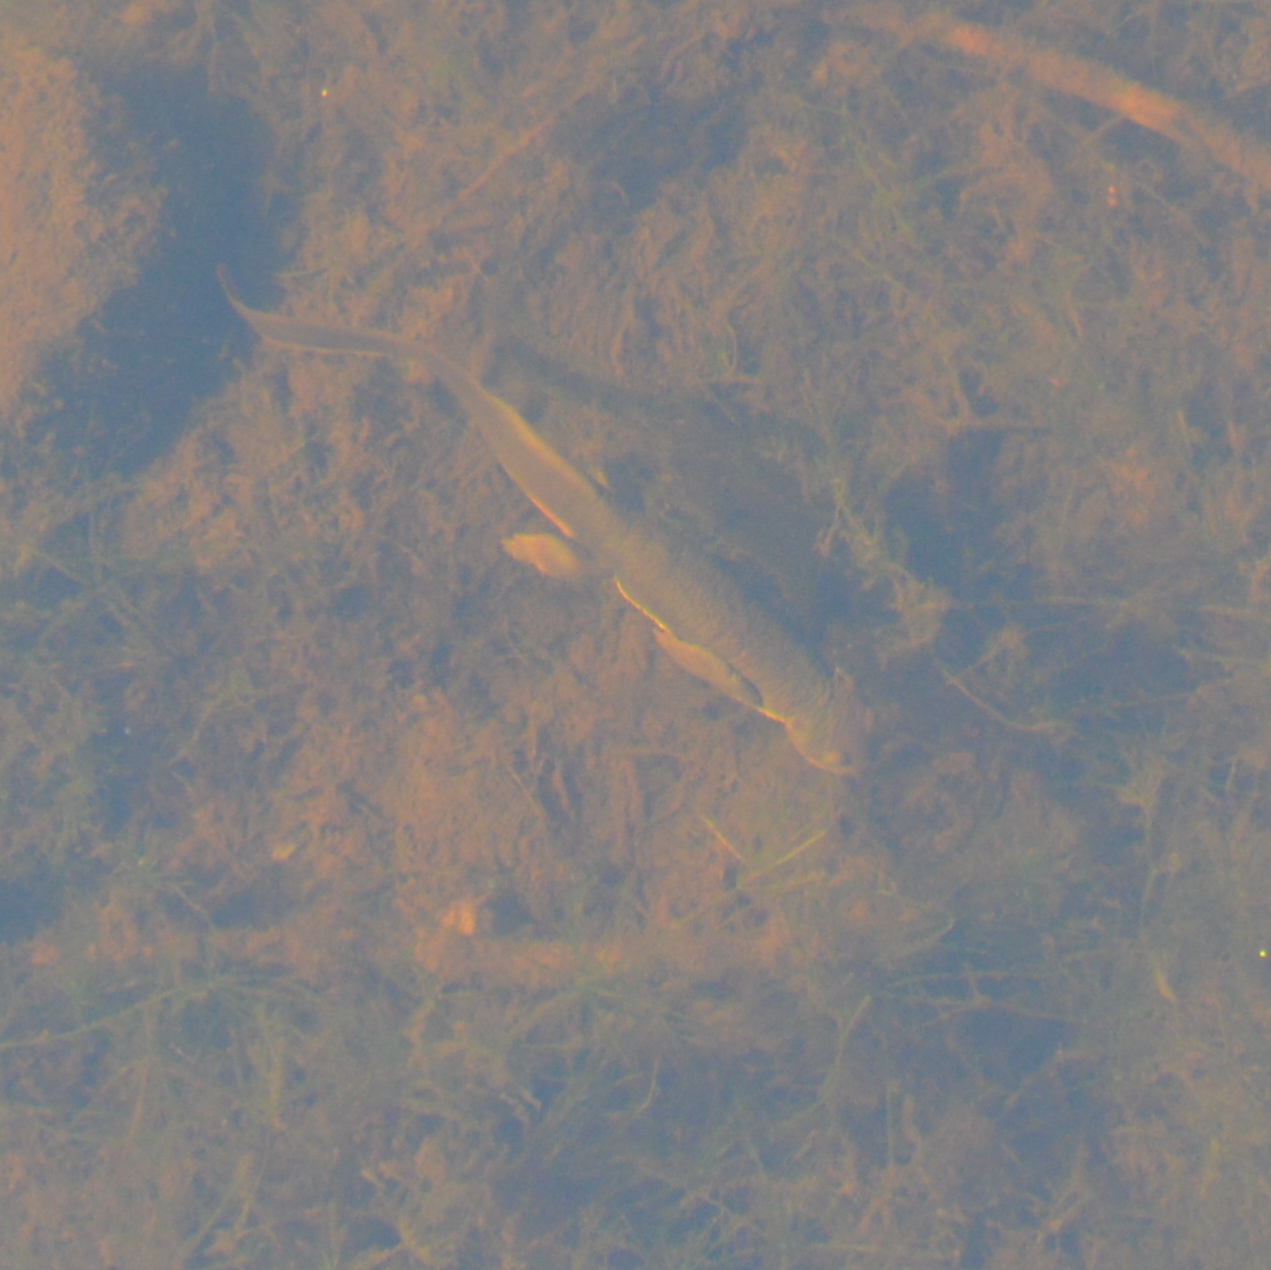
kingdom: Animalia
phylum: Chordata
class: Amphibia
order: Caudata
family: Salamandridae
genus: Taricha
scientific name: Taricha granulosa
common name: Roughskin newt
